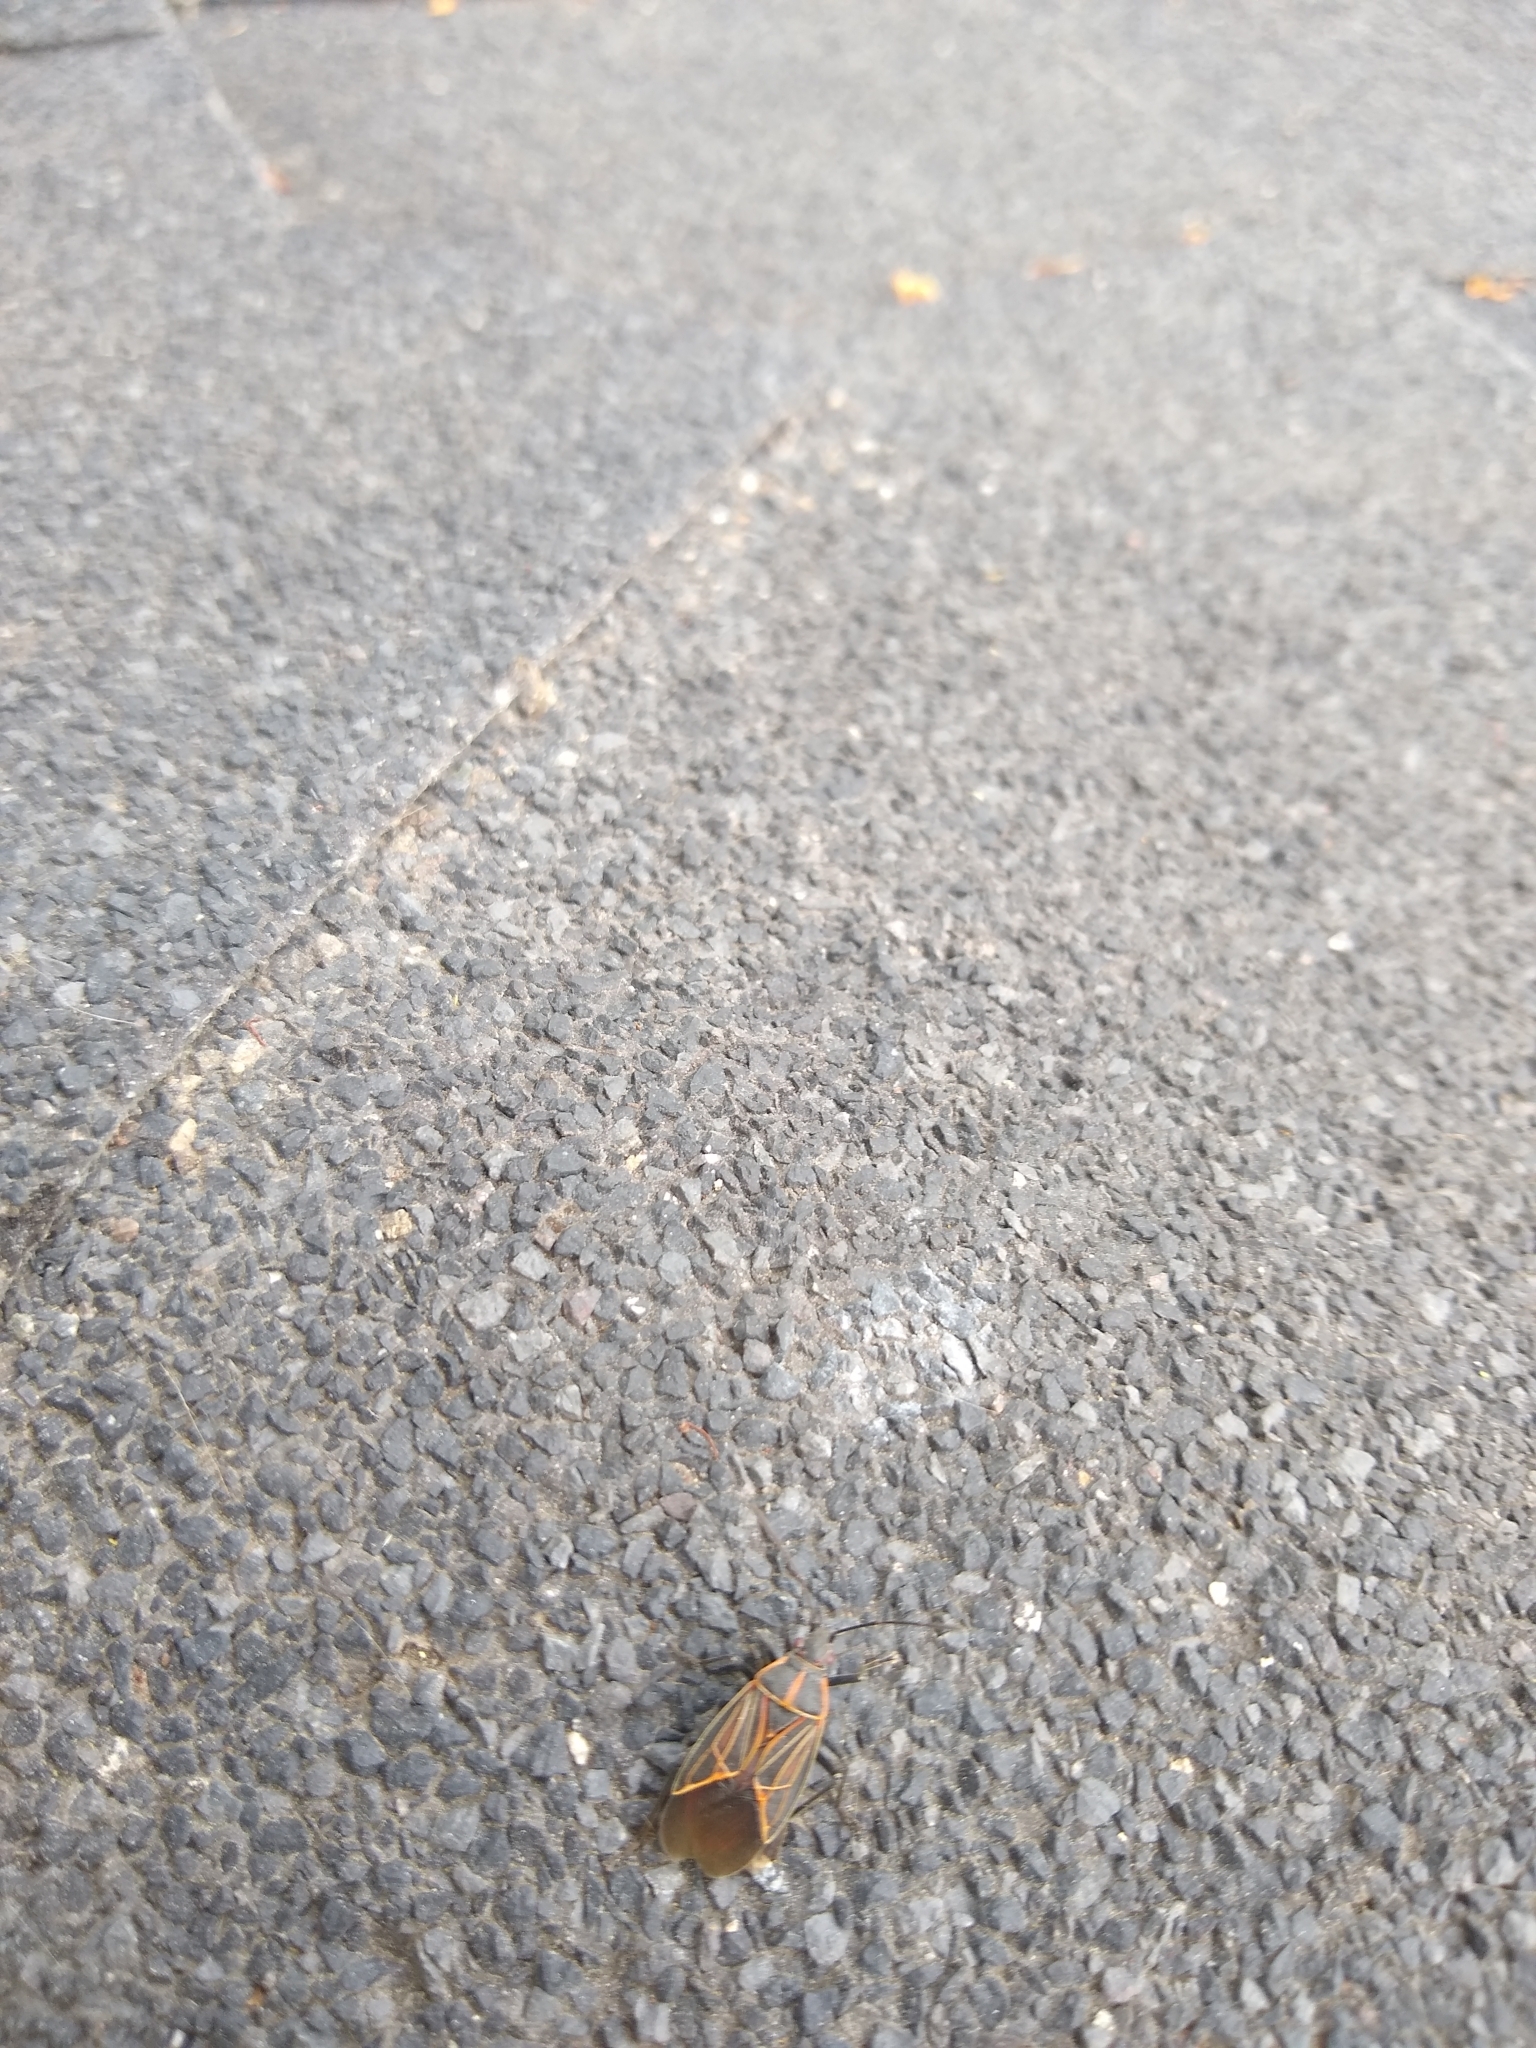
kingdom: Animalia
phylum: Arthropoda
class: Insecta
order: Hemiptera
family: Rhopalidae
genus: Boisea
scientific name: Boisea rubrolineata
